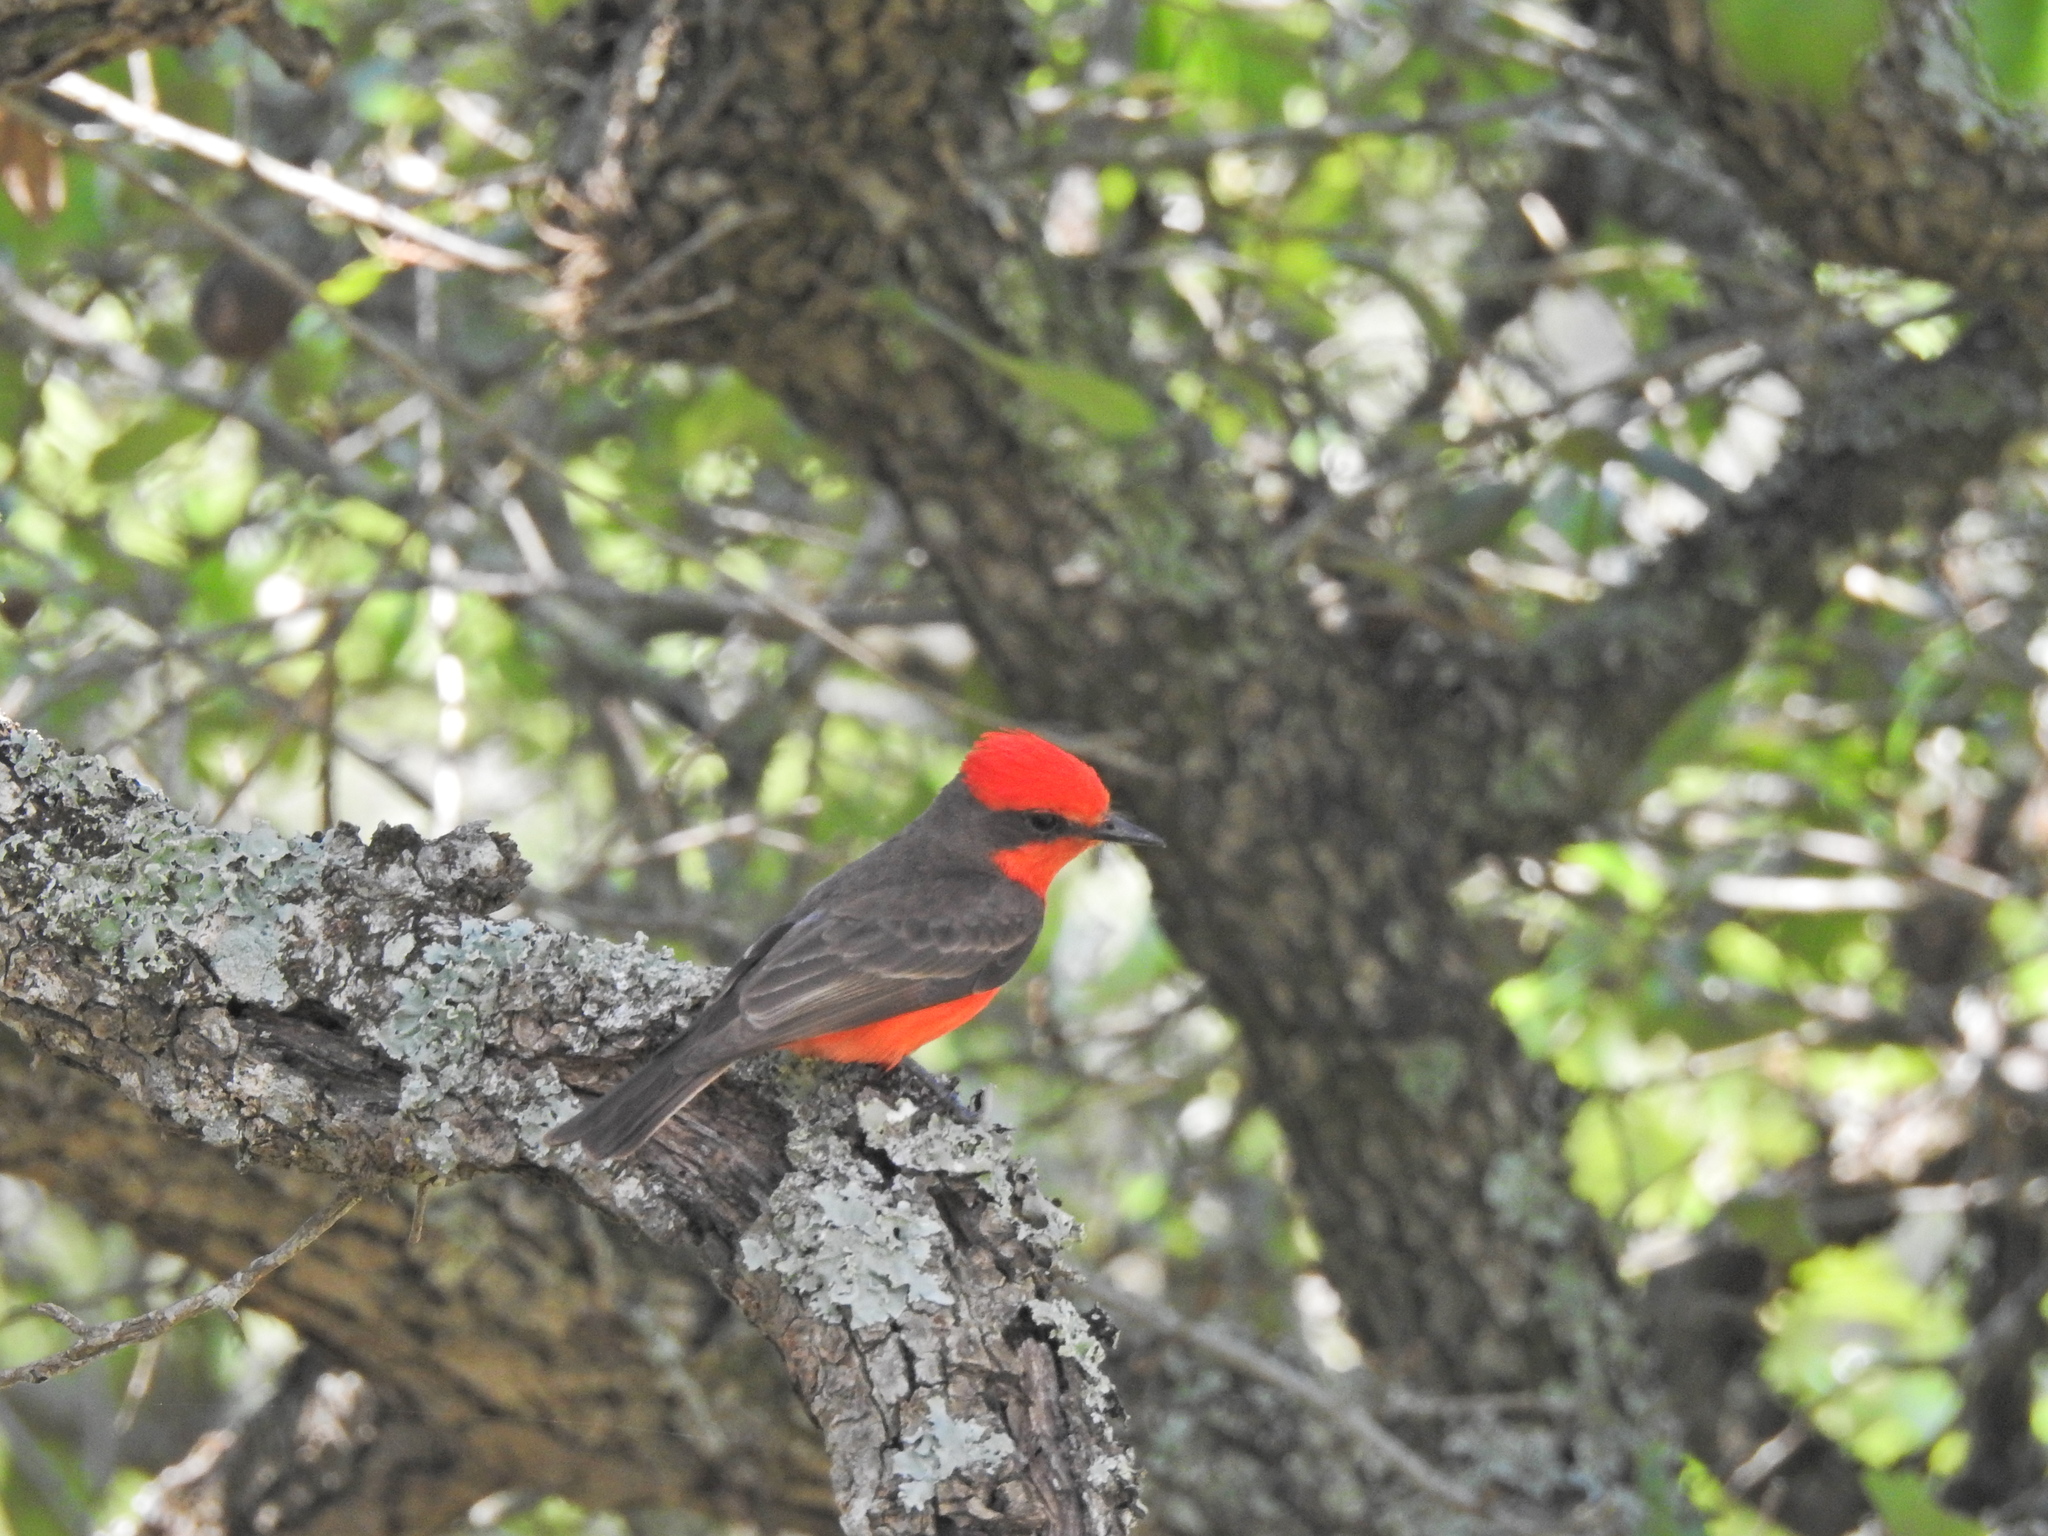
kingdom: Animalia
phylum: Chordata
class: Aves
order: Passeriformes
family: Tyrannidae
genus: Pyrocephalus
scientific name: Pyrocephalus rubinus
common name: Vermilion flycatcher
